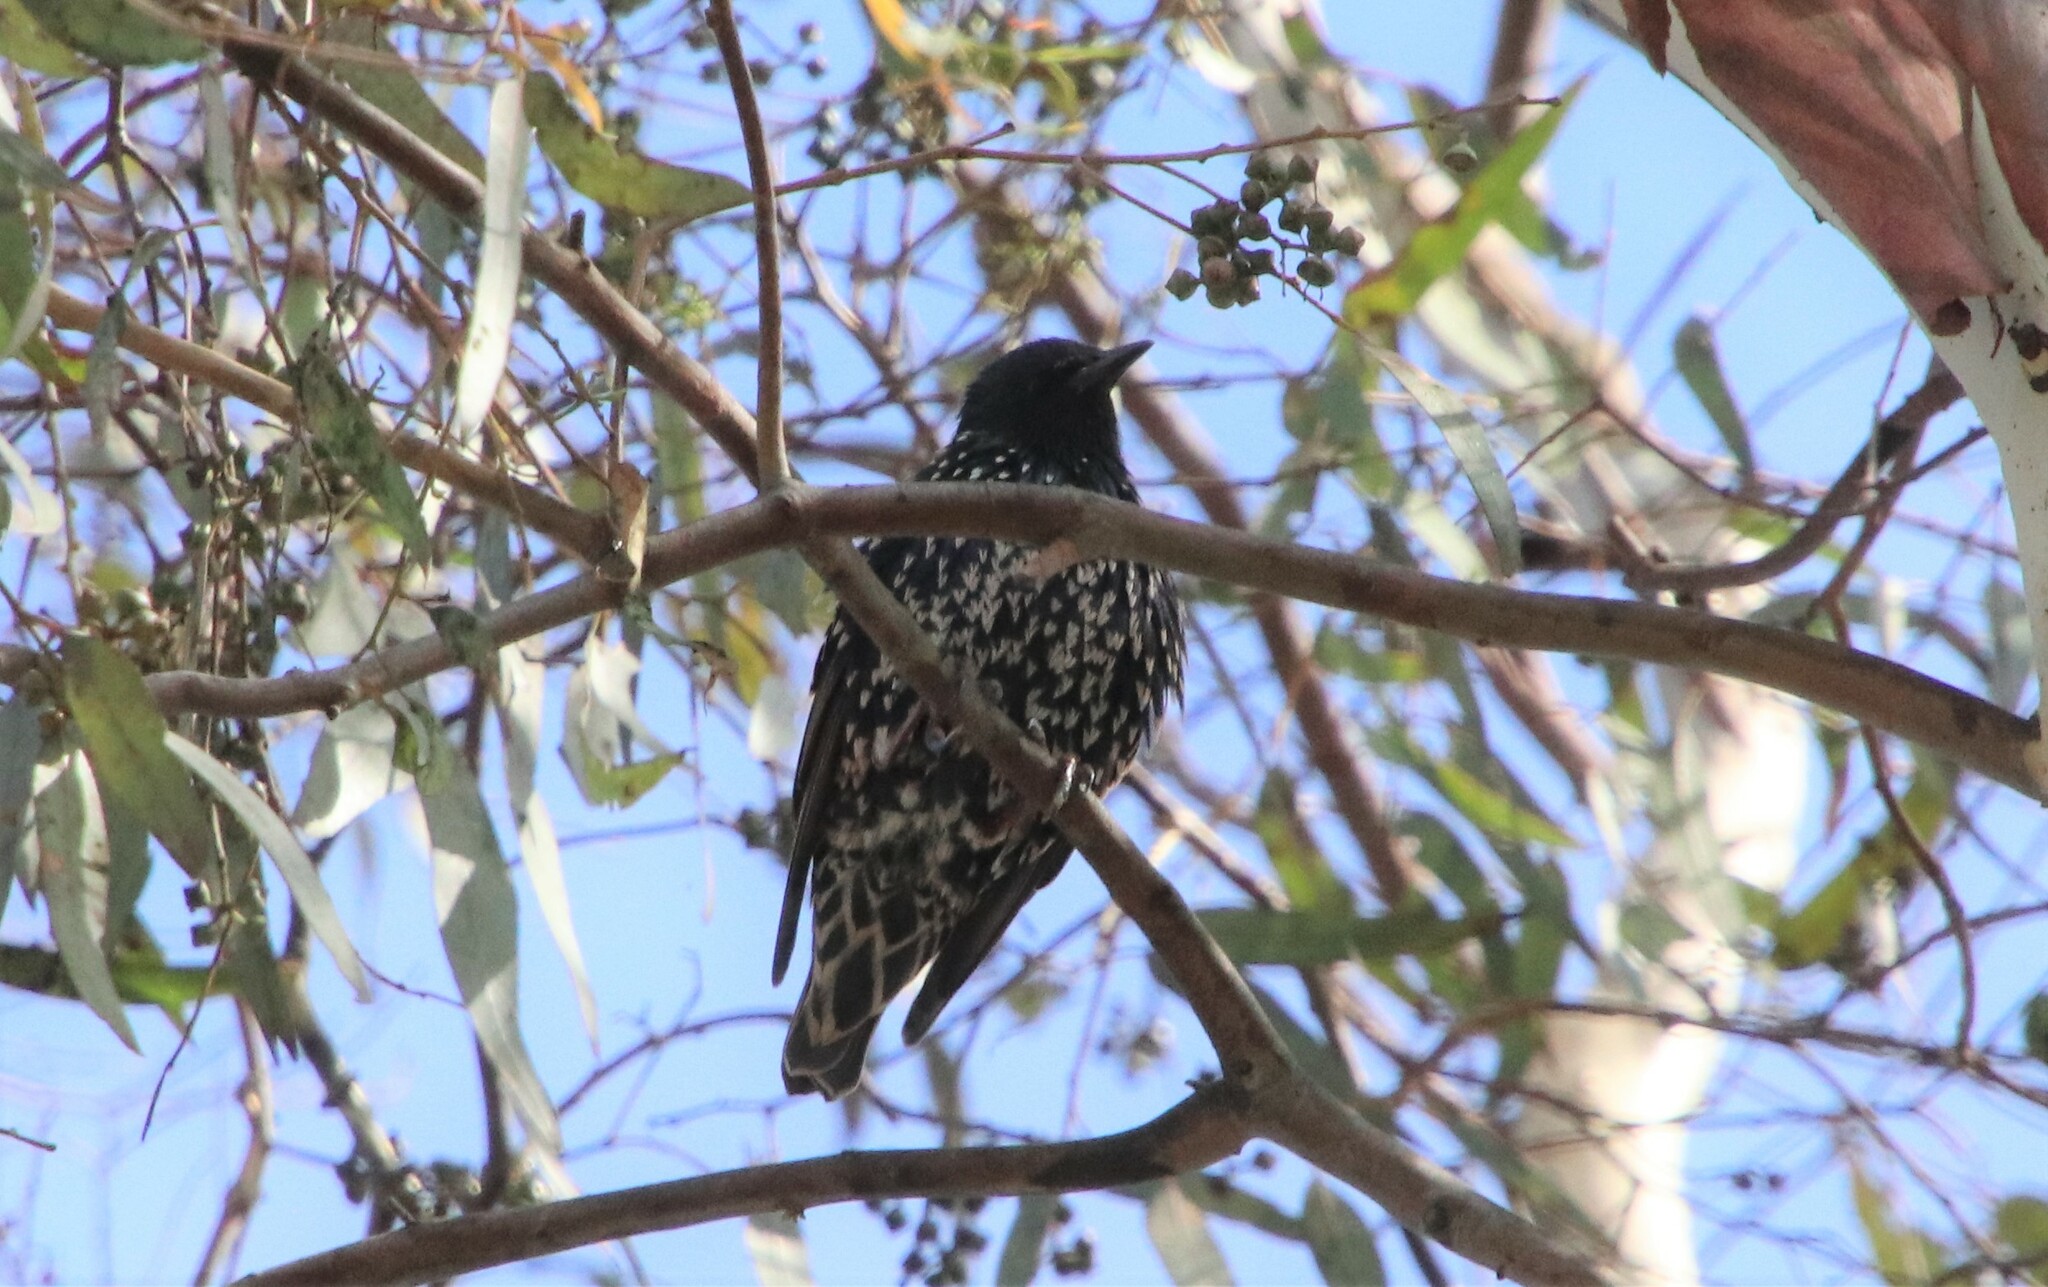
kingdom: Animalia
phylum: Chordata
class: Aves
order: Passeriformes
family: Sturnidae
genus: Sturnus
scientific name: Sturnus vulgaris
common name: Common starling
